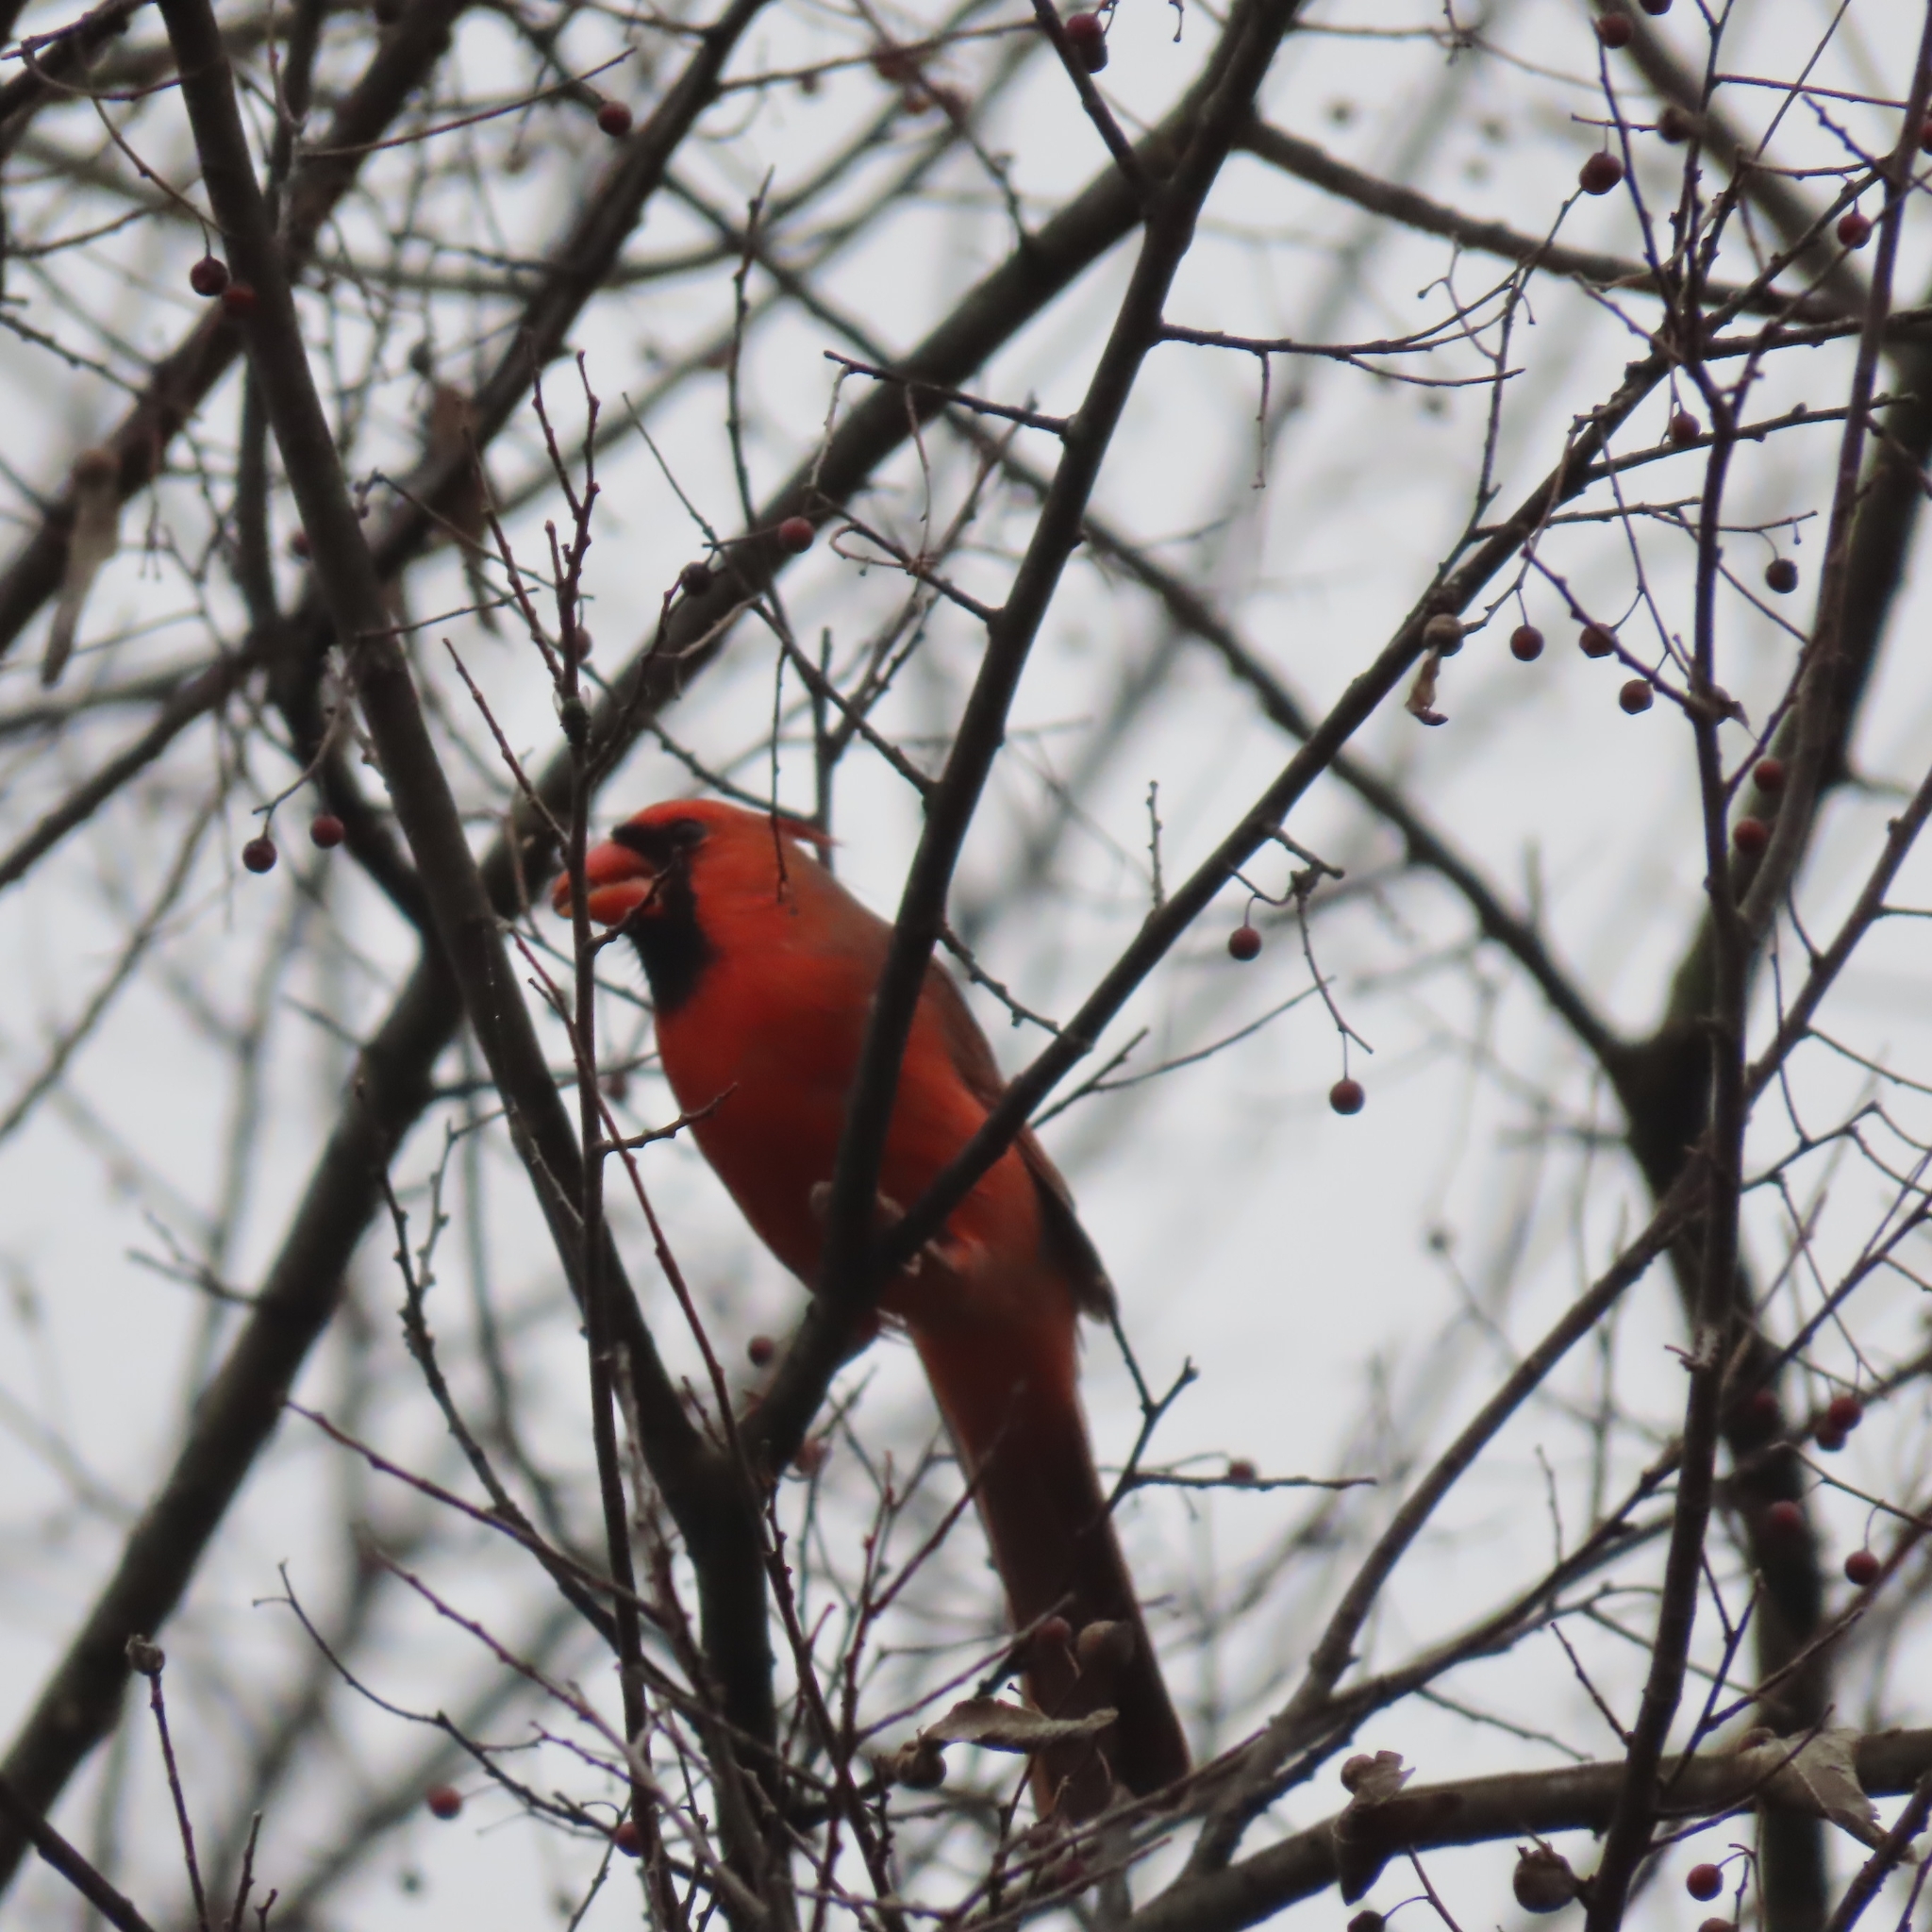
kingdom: Animalia
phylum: Chordata
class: Aves
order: Passeriformes
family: Cardinalidae
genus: Cardinalis
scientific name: Cardinalis cardinalis
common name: Northern cardinal
